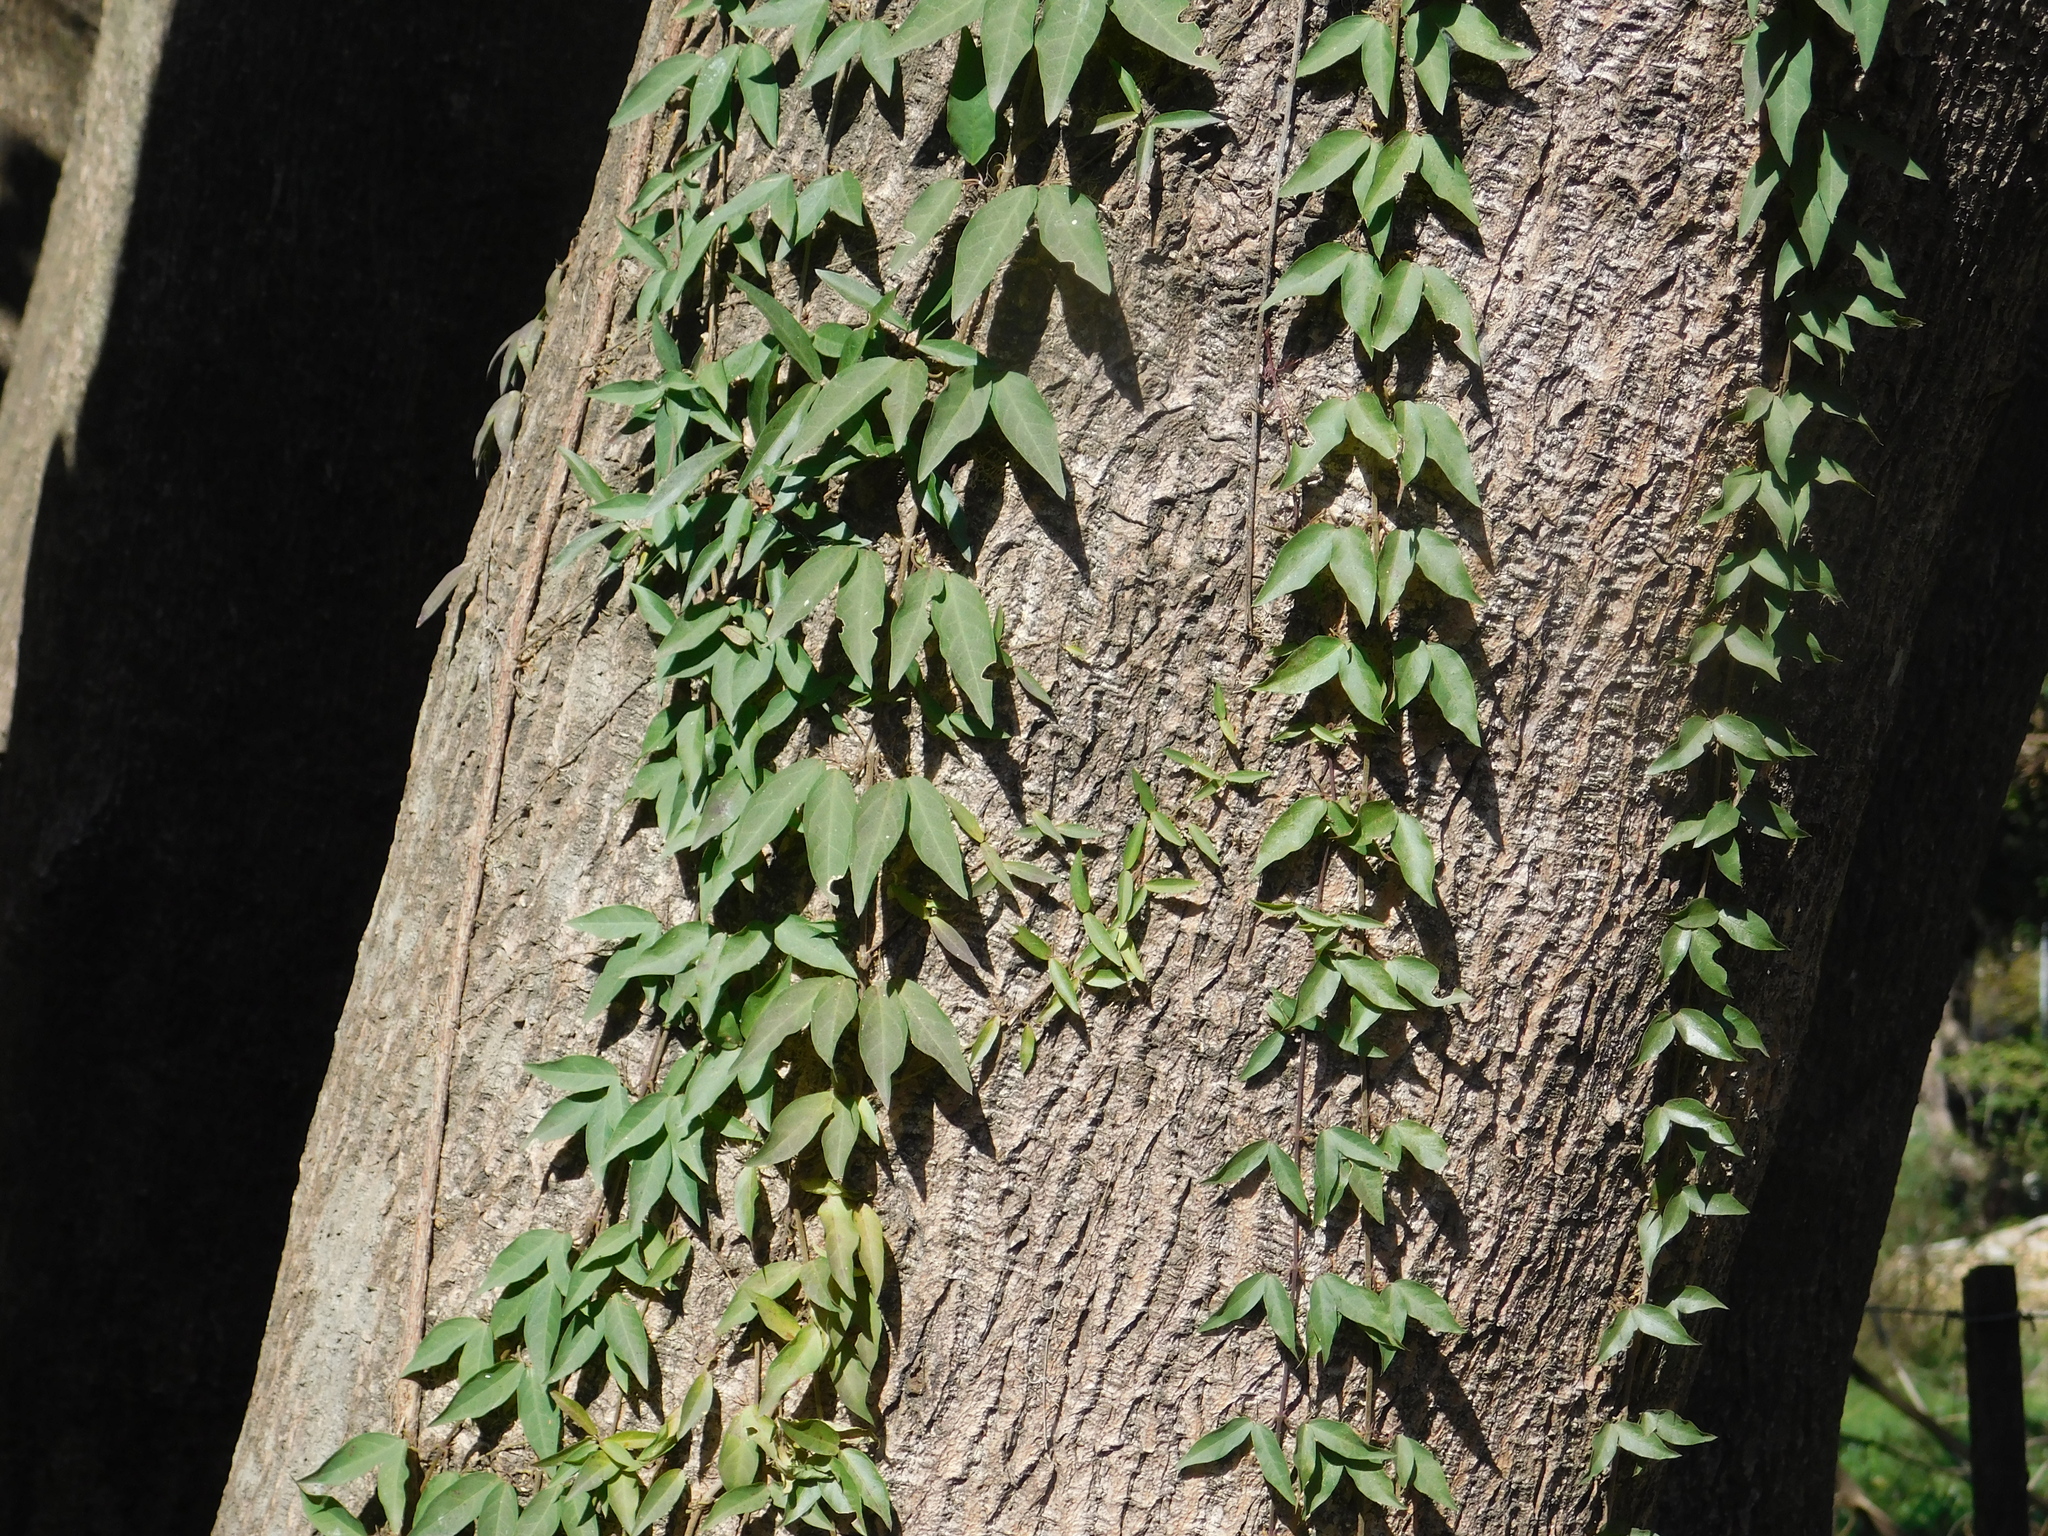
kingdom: Plantae
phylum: Tracheophyta
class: Magnoliopsida
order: Lamiales
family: Bignoniaceae
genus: Dolichandra
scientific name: Dolichandra unguis-cati
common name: Catclaw vine
